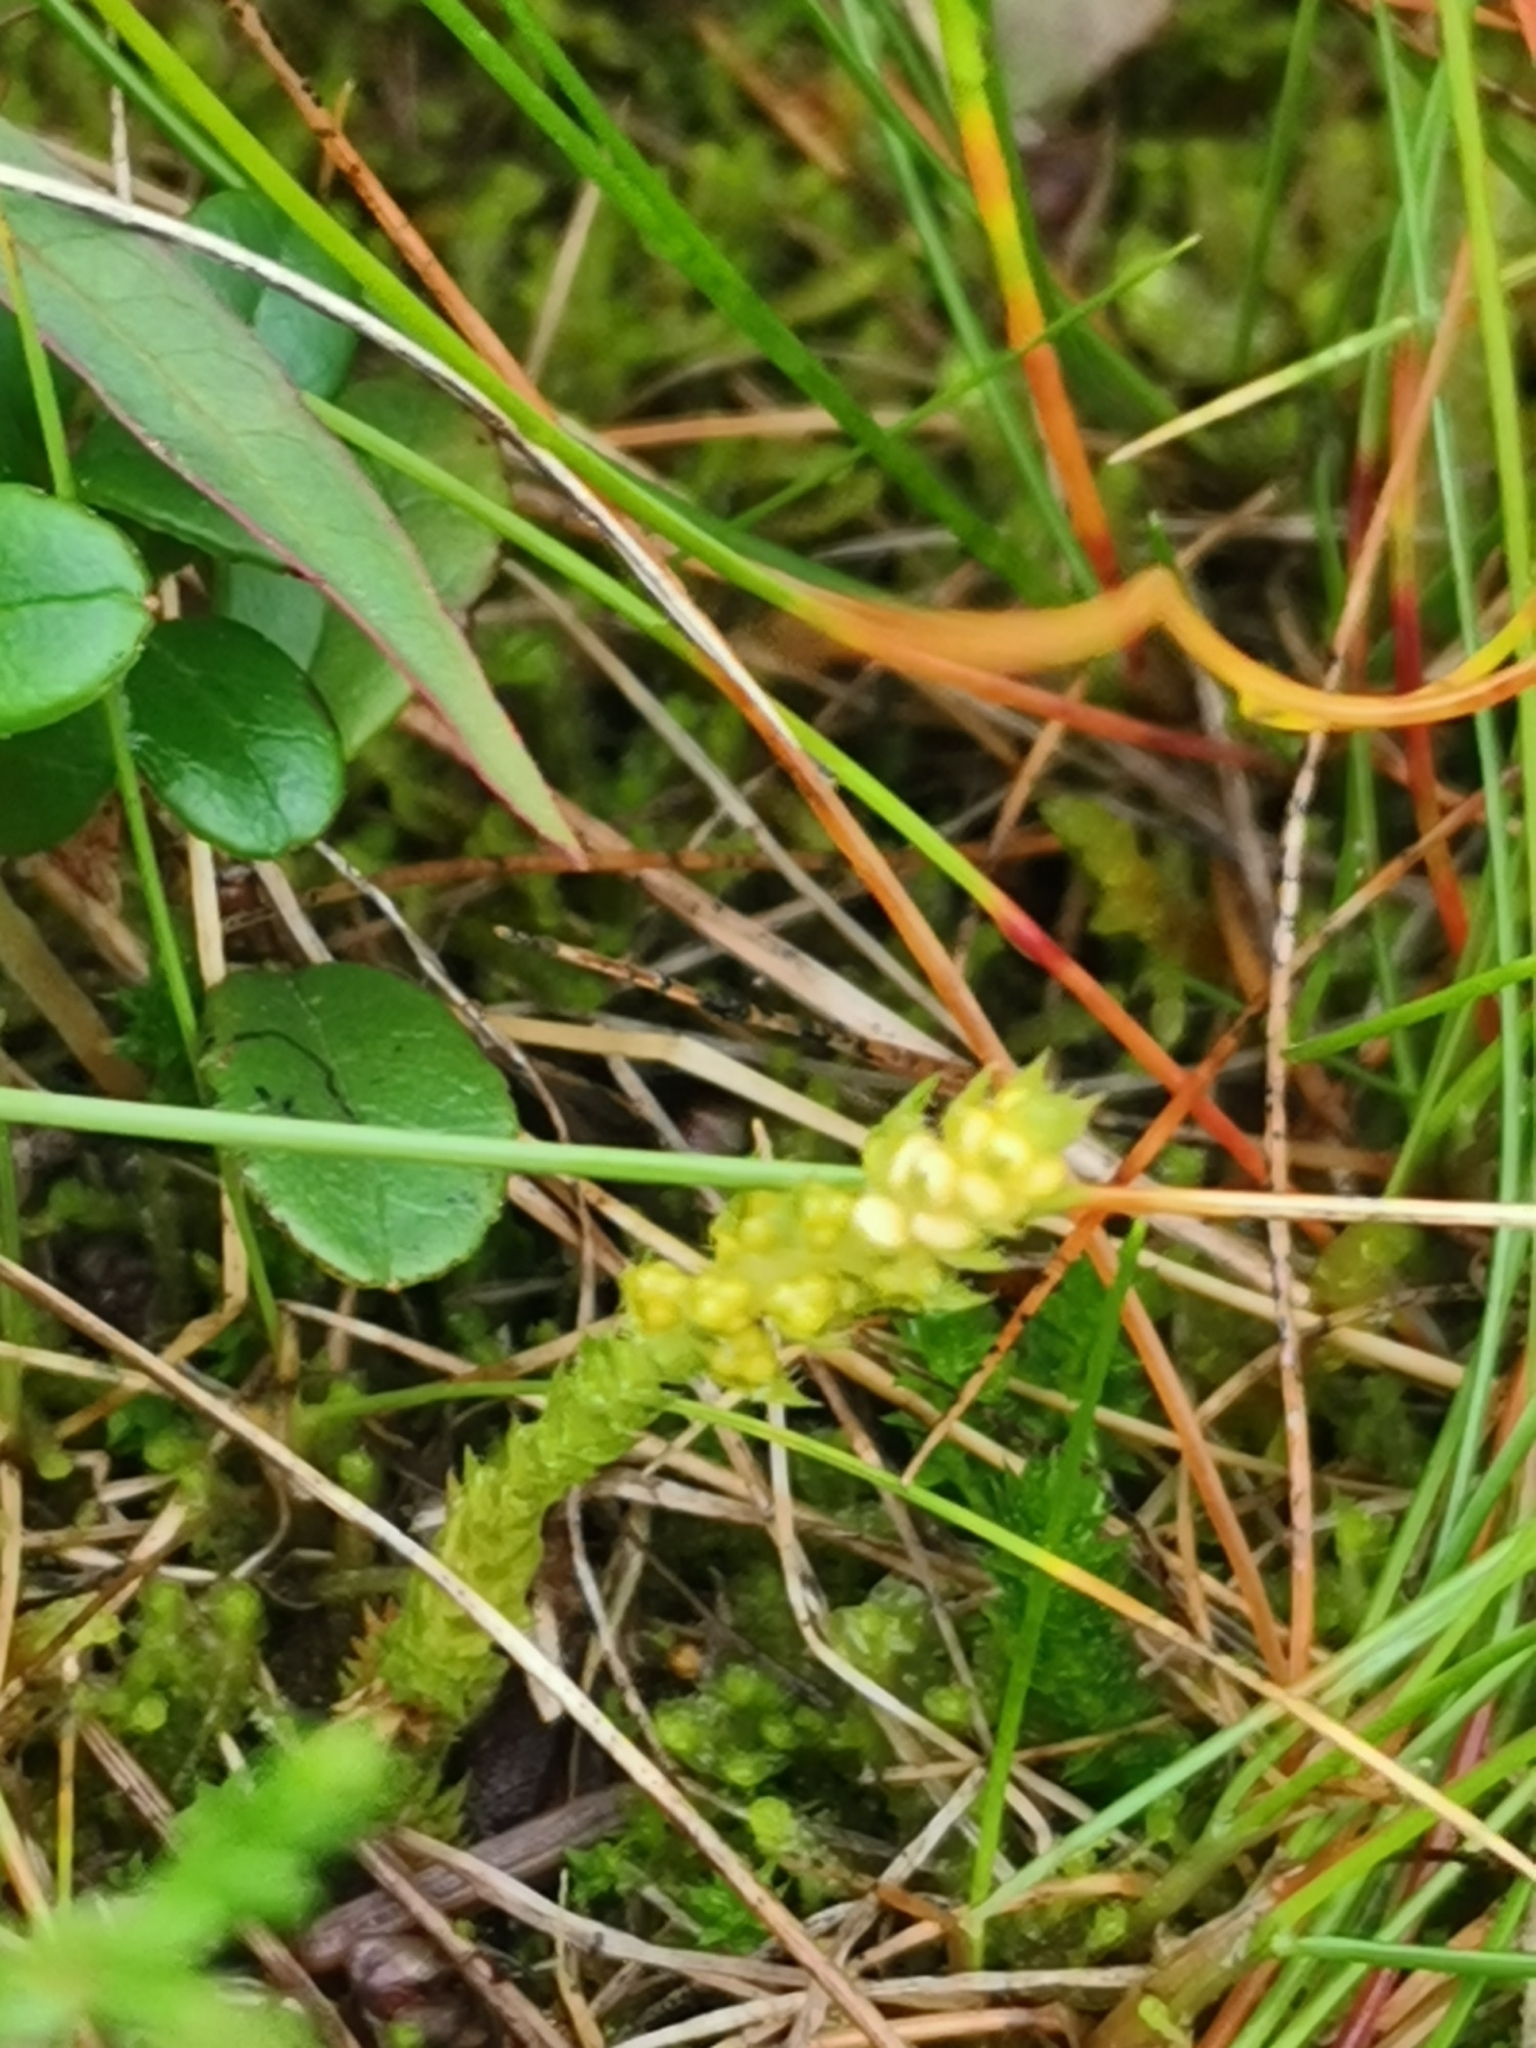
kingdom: Plantae
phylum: Tracheophyta
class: Lycopodiopsida
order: Selaginellales
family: Selaginellaceae
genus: Selaginella
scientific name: Selaginella selaginoides
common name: Prickly mountain-moss
